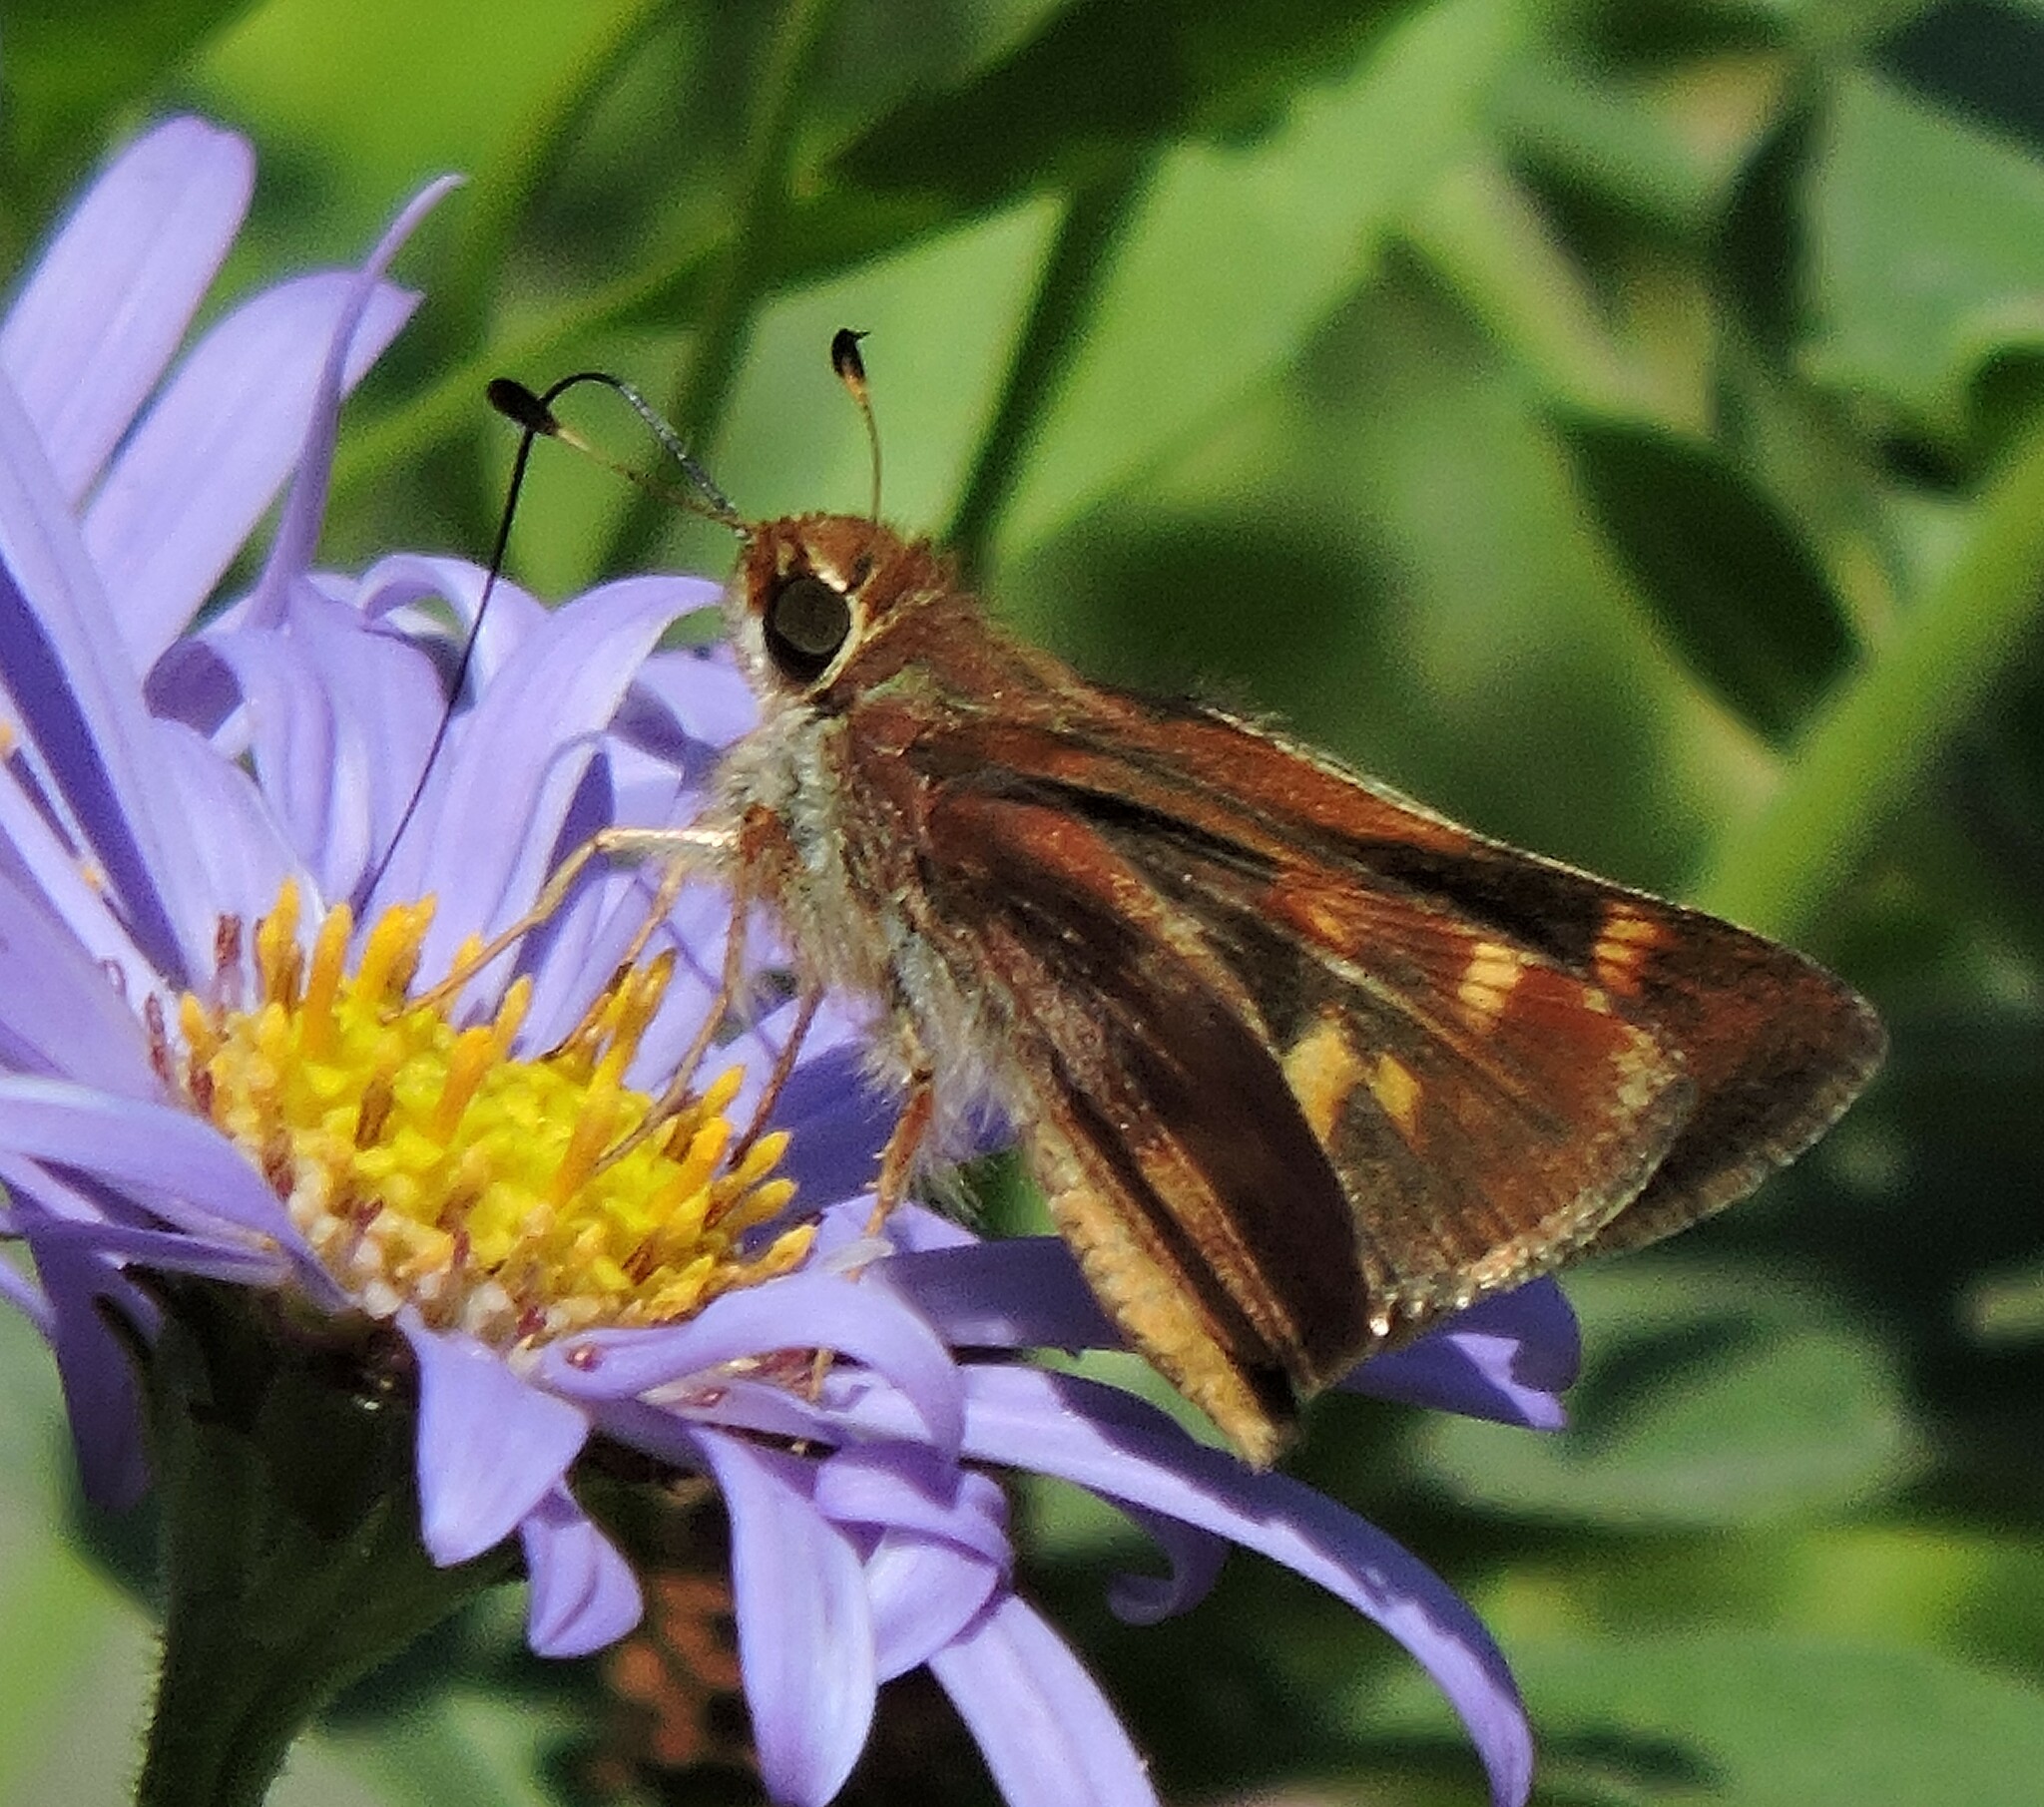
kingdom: Animalia
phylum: Arthropoda
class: Insecta
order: Lepidoptera
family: Hesperiidae
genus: Lon
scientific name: Lon melane
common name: Umber skipper
